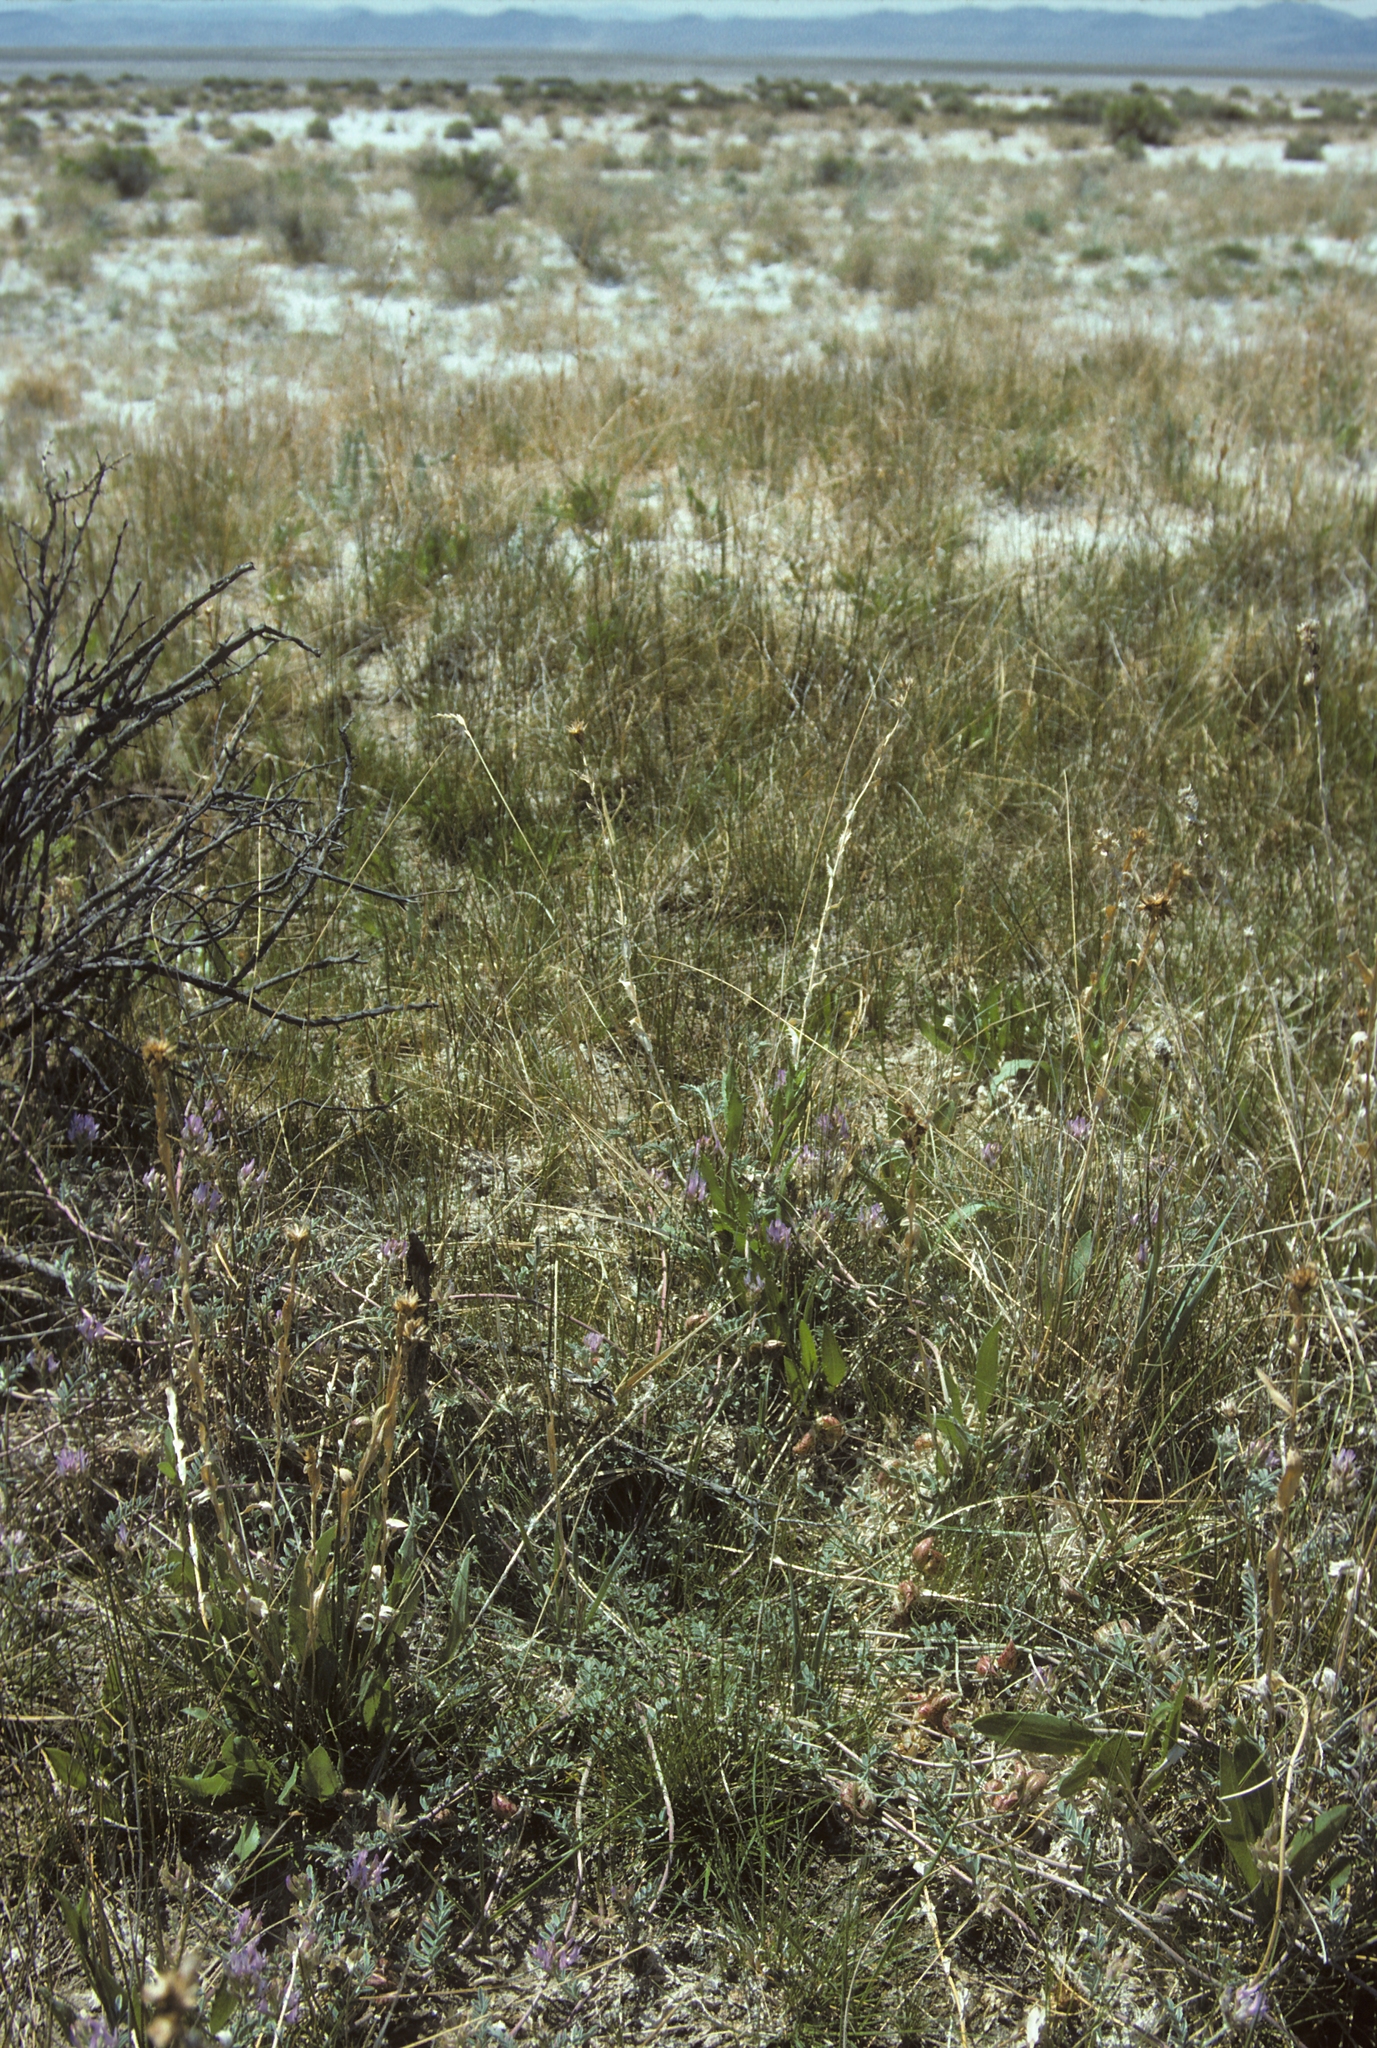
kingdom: Plantae
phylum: Tracheophyta
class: Magnoliopsida
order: Fabales
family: Fabaceae
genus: Astragalus
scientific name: Astragalus lentiginosus
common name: Freckled milkvetch
